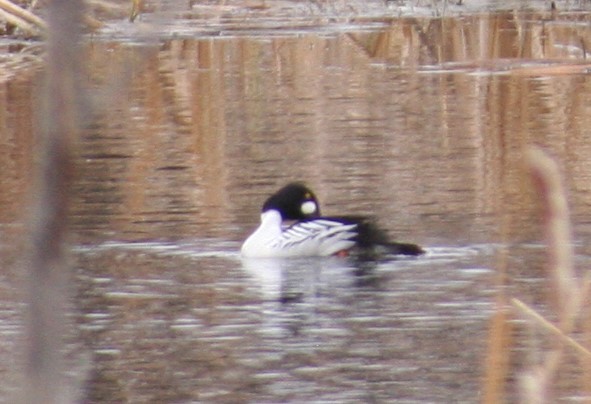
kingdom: Animalia
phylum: Chordata
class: Aves
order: Anseriformes
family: Anatidae
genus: Bucephala
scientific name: Bucephala clangula
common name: Common goldeneye
